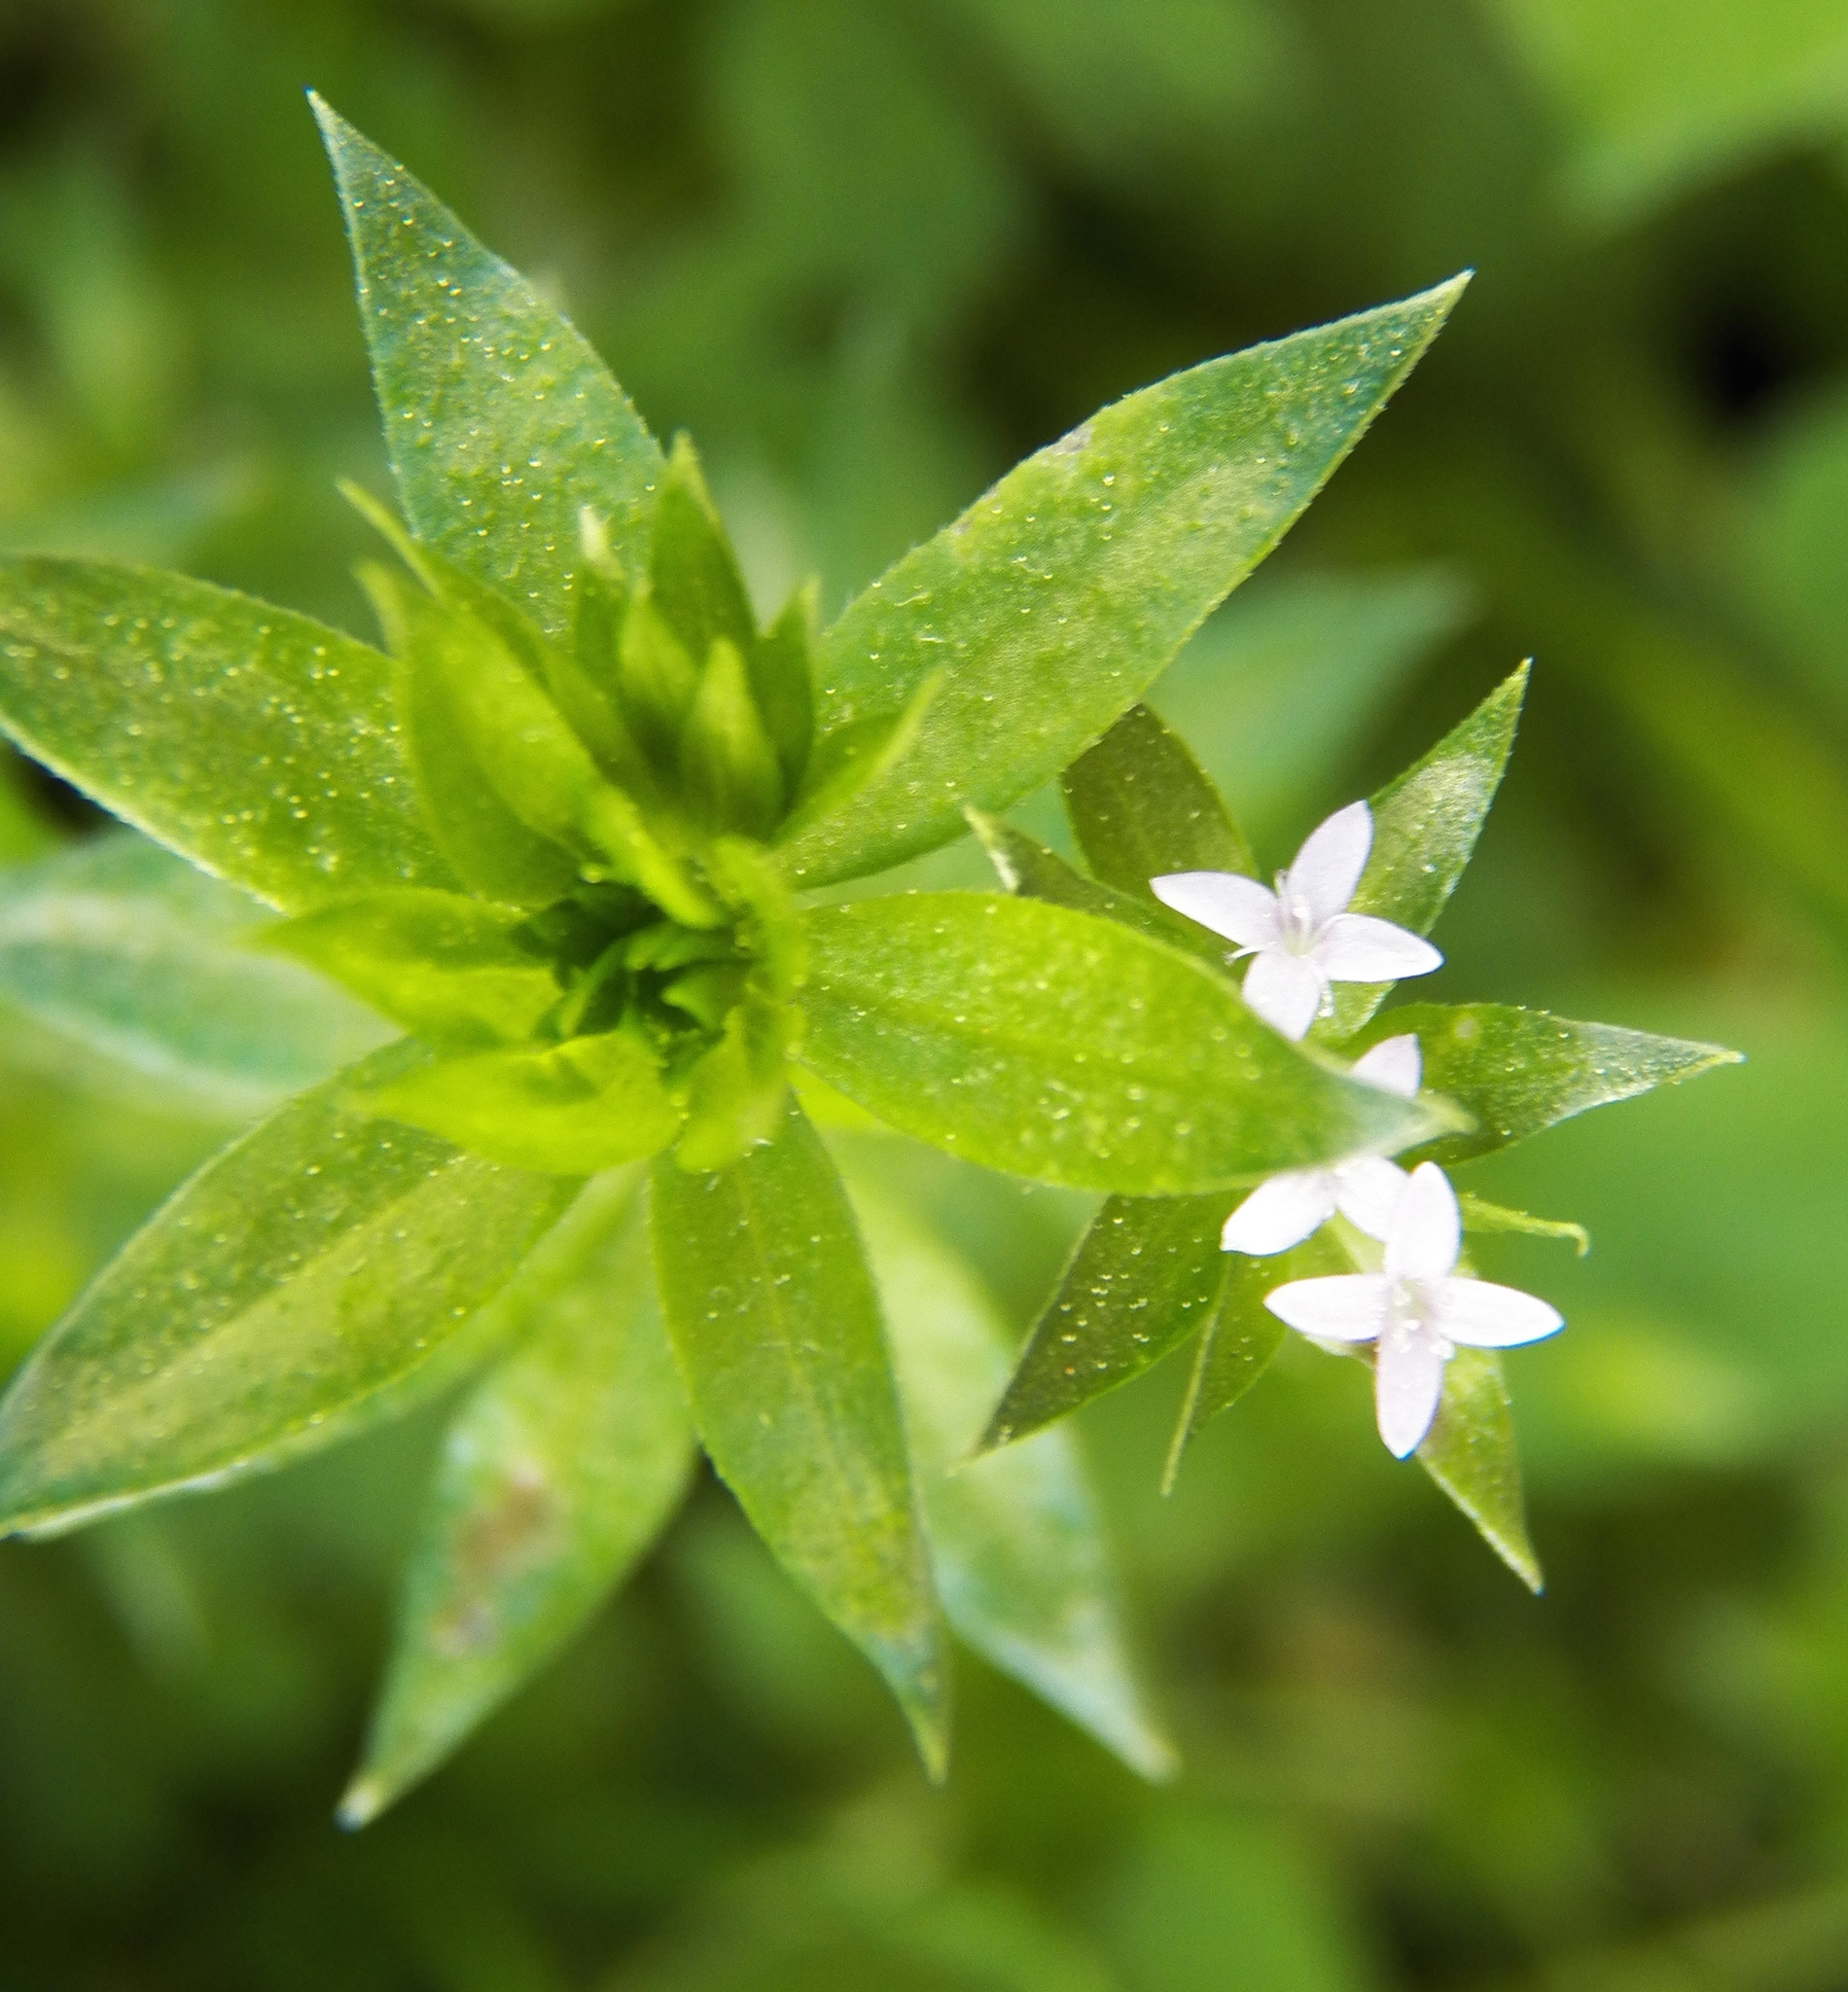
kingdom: Plantae
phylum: Tracheophyta
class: Magnoliopsida
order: Gentianales
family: Rubiaceae
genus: Sherardia
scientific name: Sherardia arvensis
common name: Field madder
